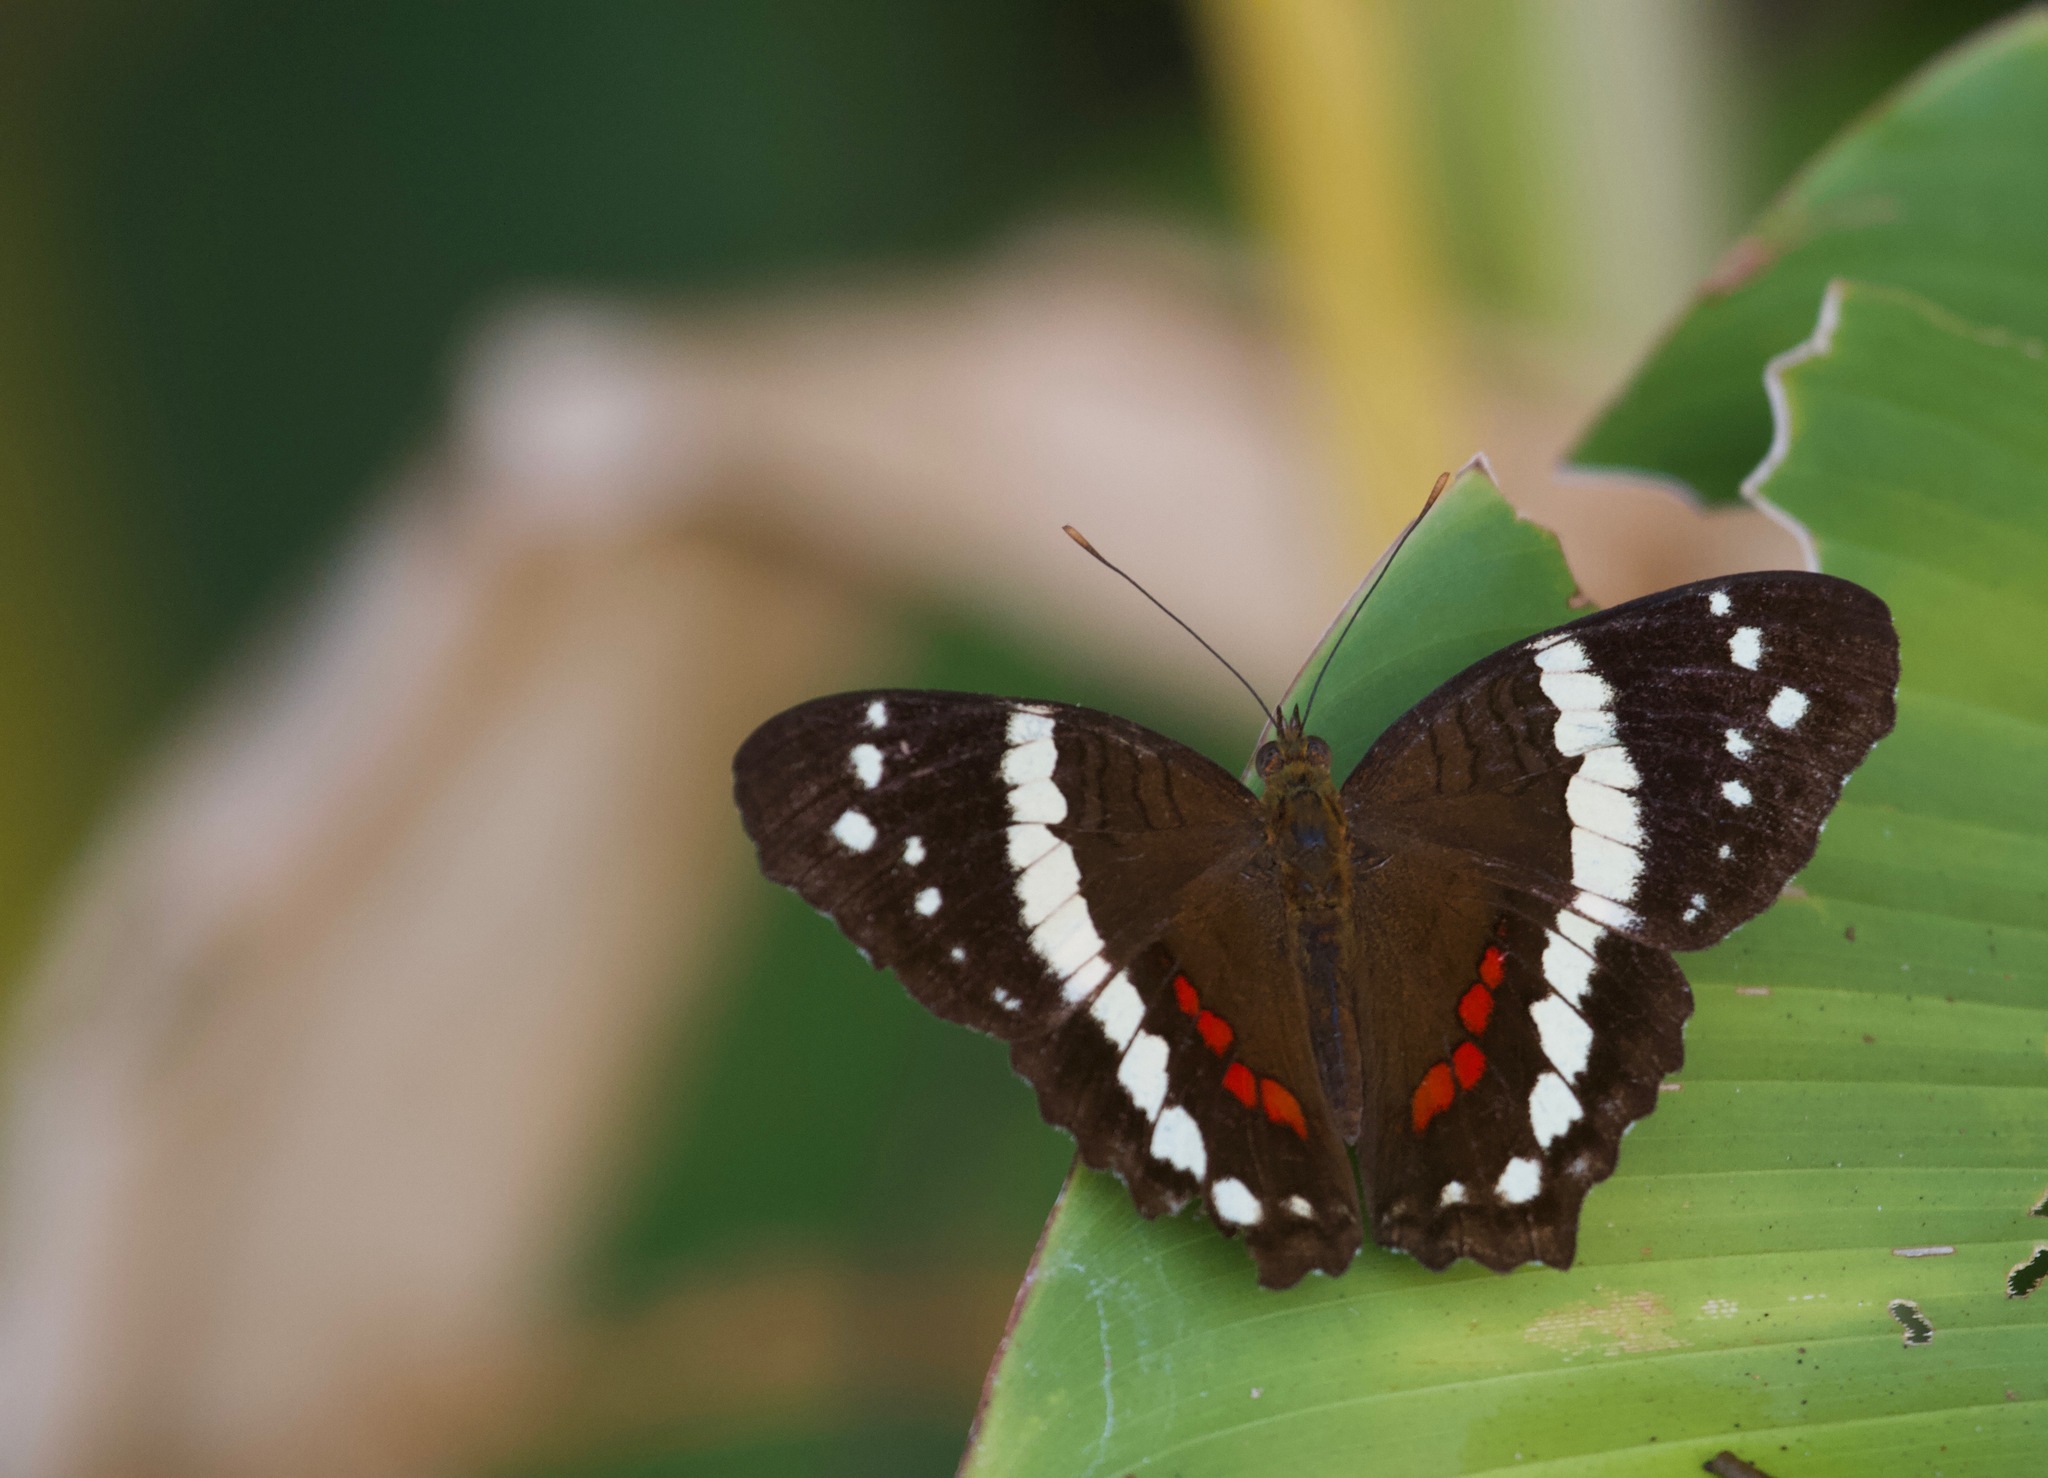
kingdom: Animalia
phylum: Arthropoda
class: Insecta
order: Lepidoptera
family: Nymphalidae
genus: Anartia
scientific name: Anartia fatima
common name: Banded peacock
